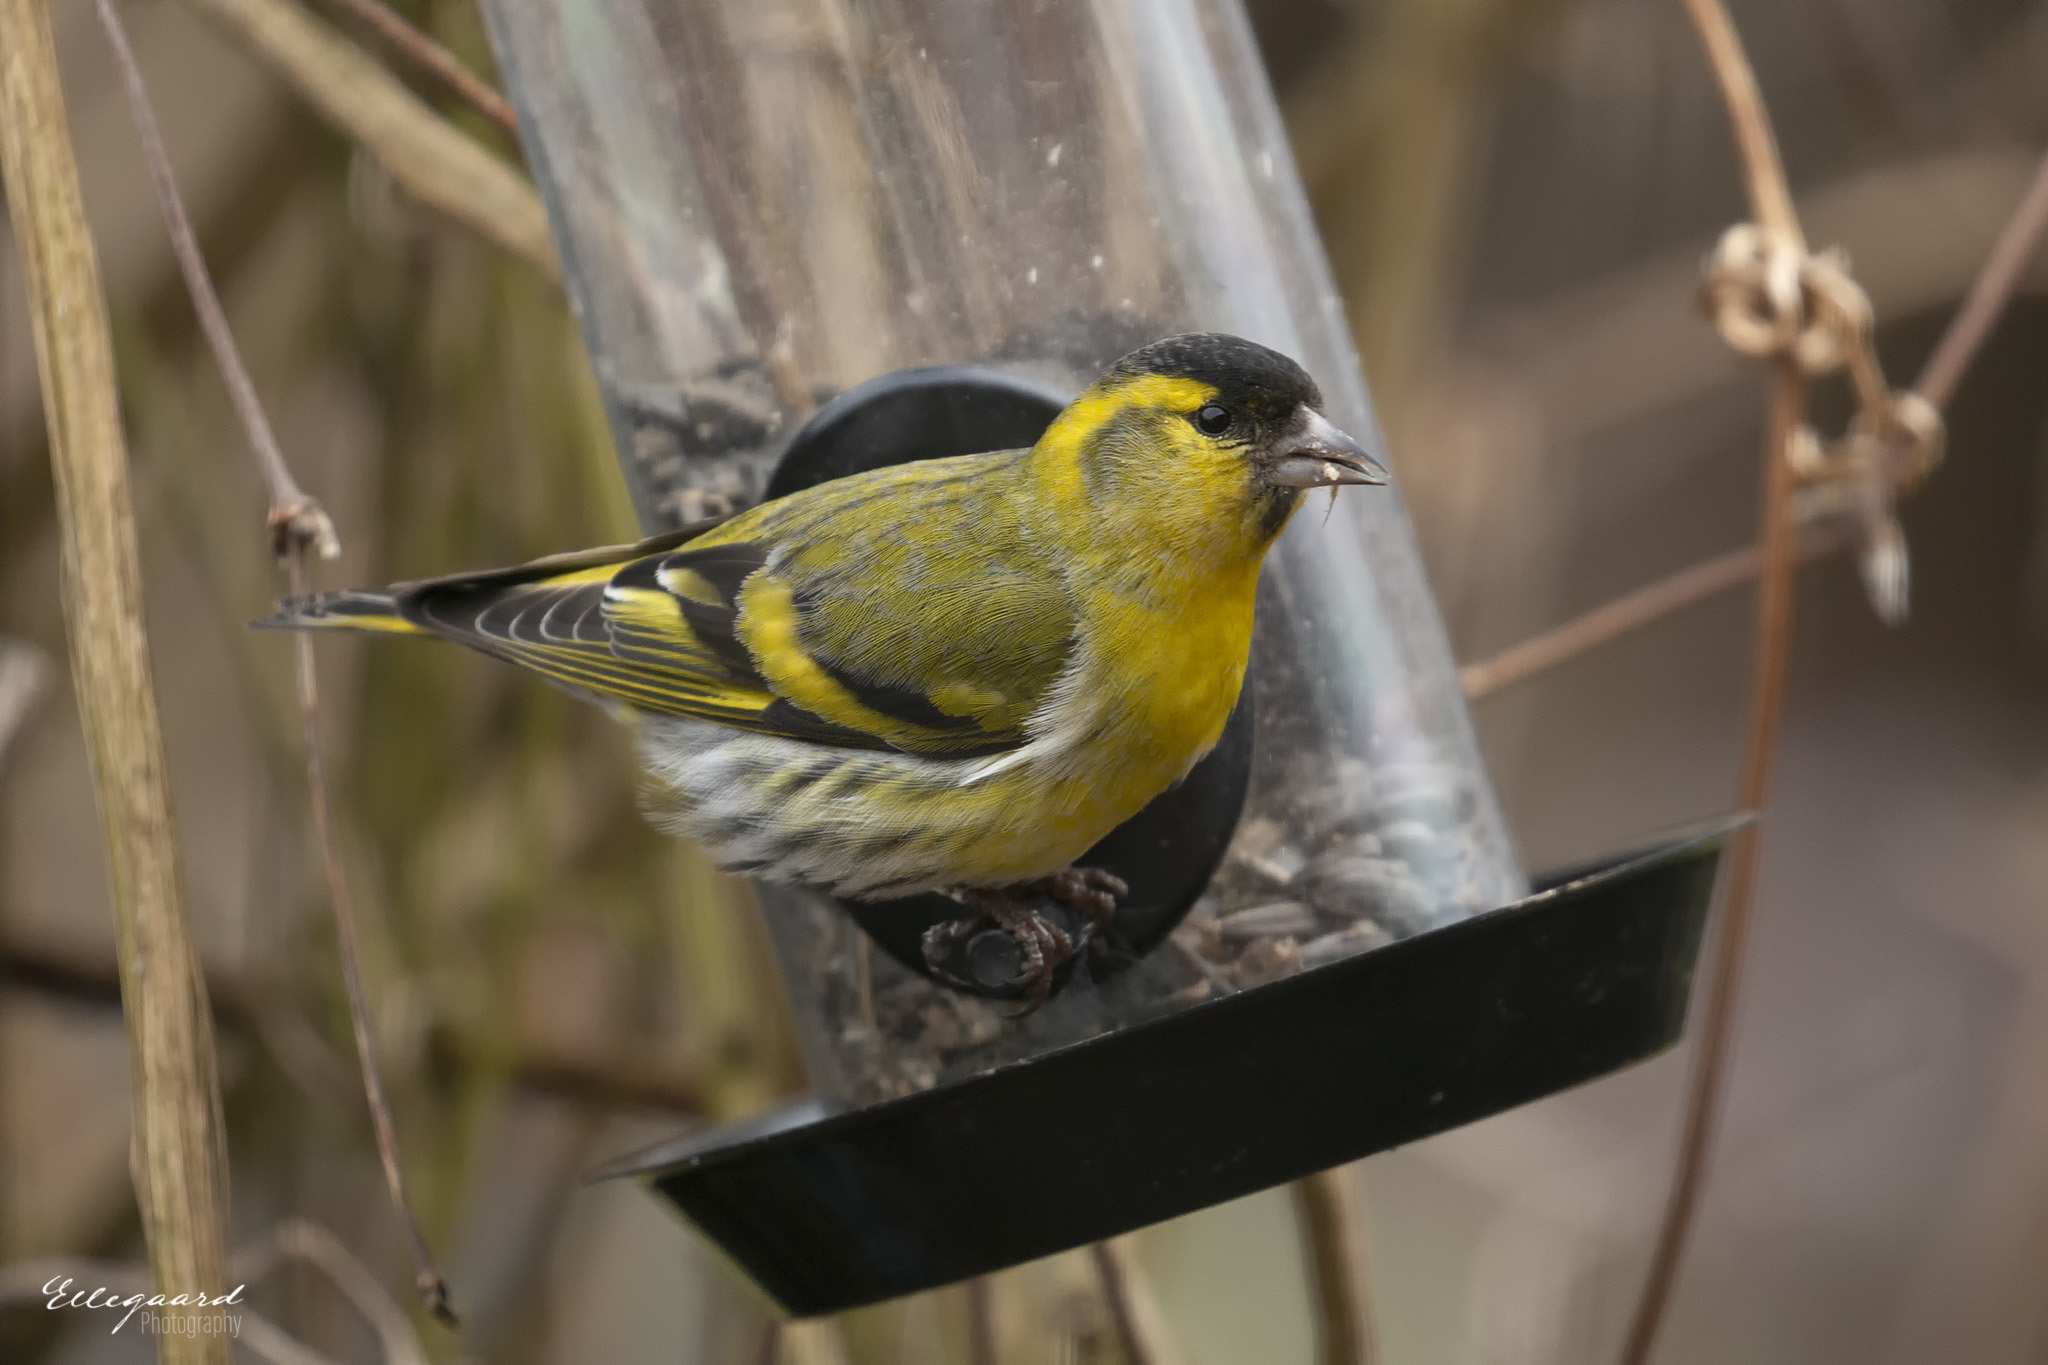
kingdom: Animalia
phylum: Chordata
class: Aves
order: Passeriformes
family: Fringillidae
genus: Spinus
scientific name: Spinus spinus
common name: Eurasian siskin
